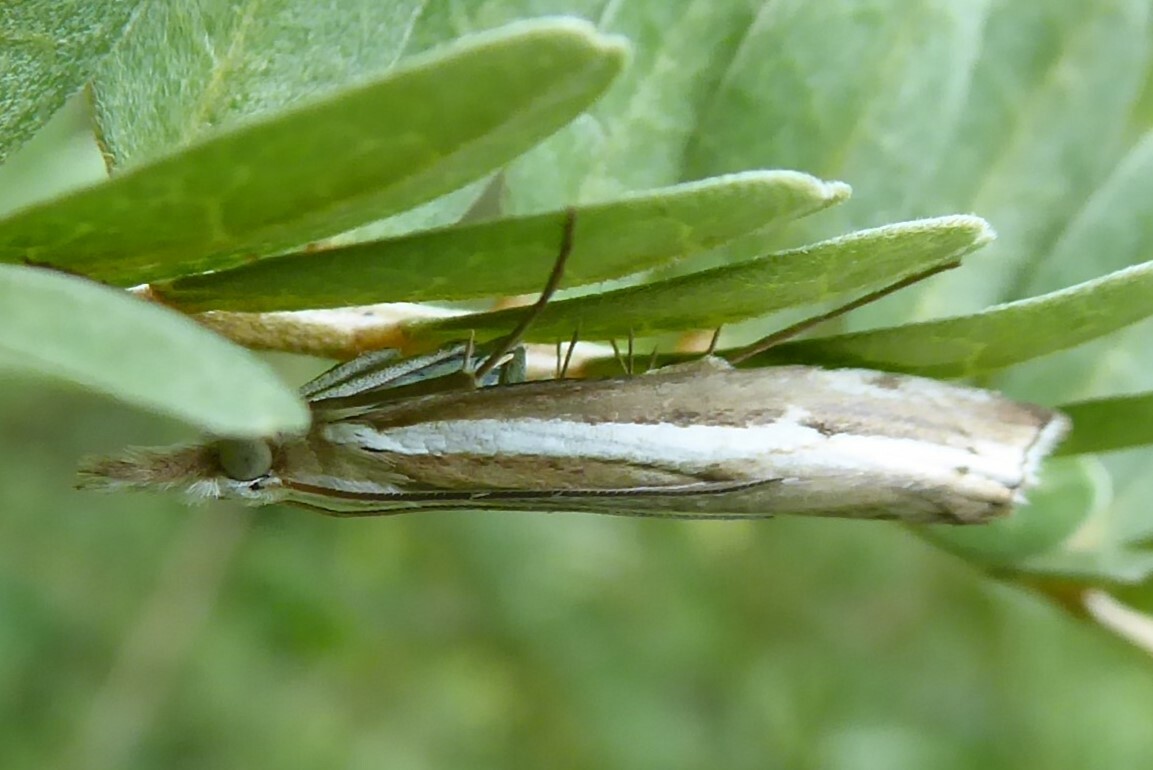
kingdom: Animalia
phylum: Arthropoda
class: Insecta
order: Lepidoptera
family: Crambidae
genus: Orocrambus
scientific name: Orocrambus vittellus
